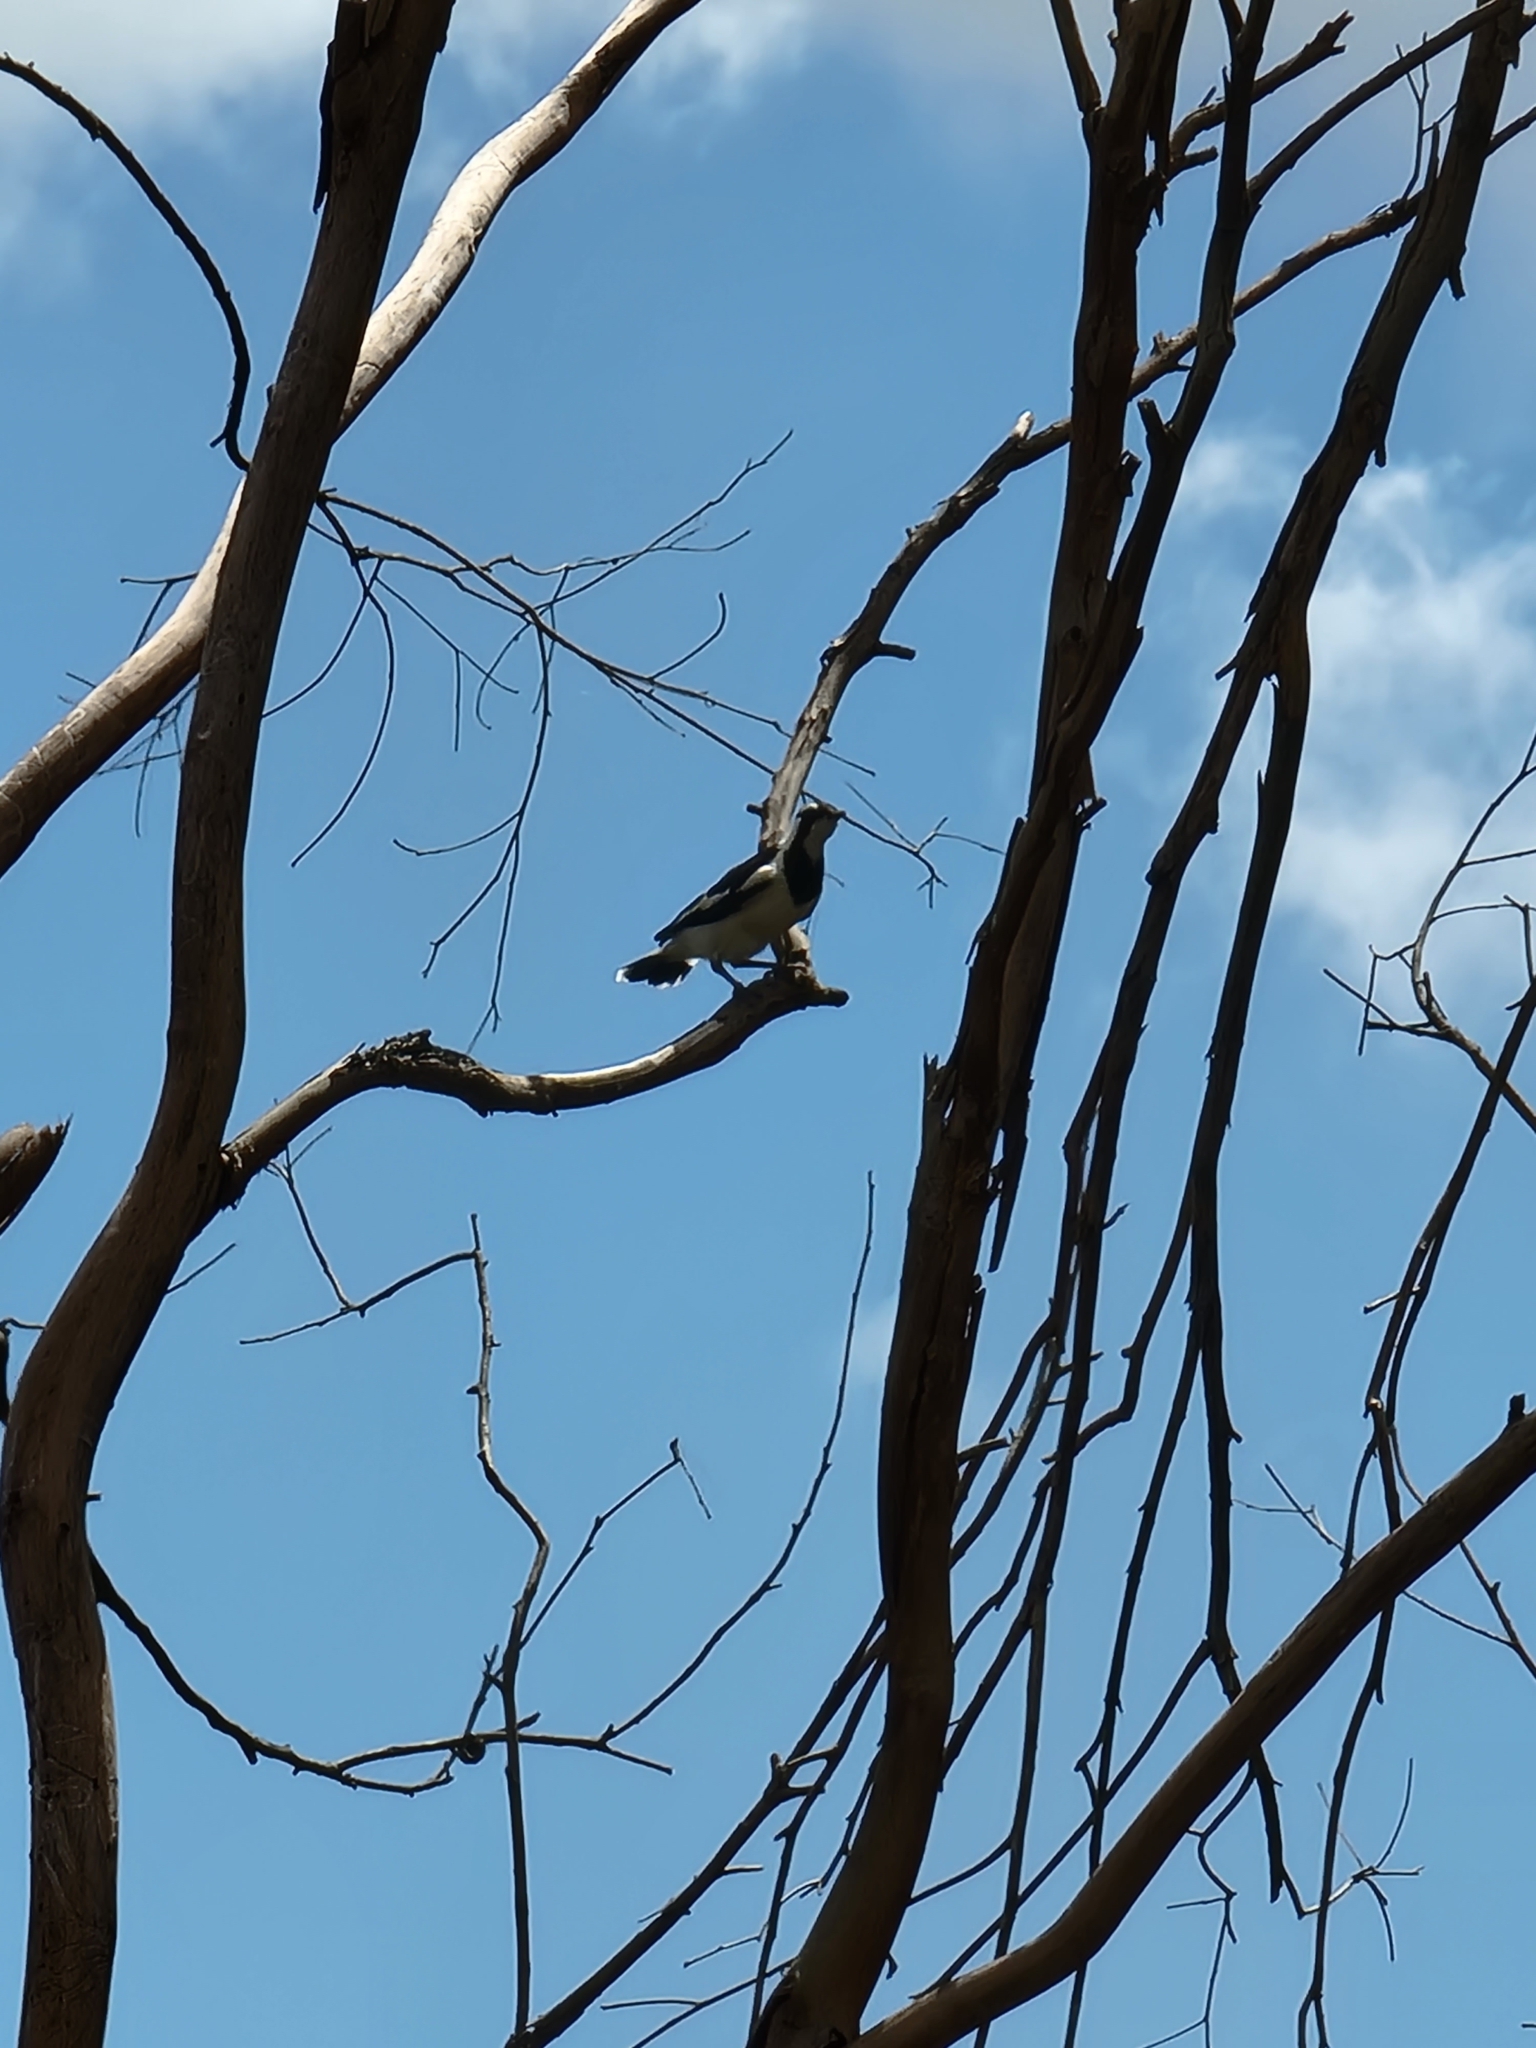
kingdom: Animalia
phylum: Chordata
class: Aves
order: Passeriformes
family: Monarchidae
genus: Grallina
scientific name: Grallina cyanoleuca
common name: Magpie-lark
